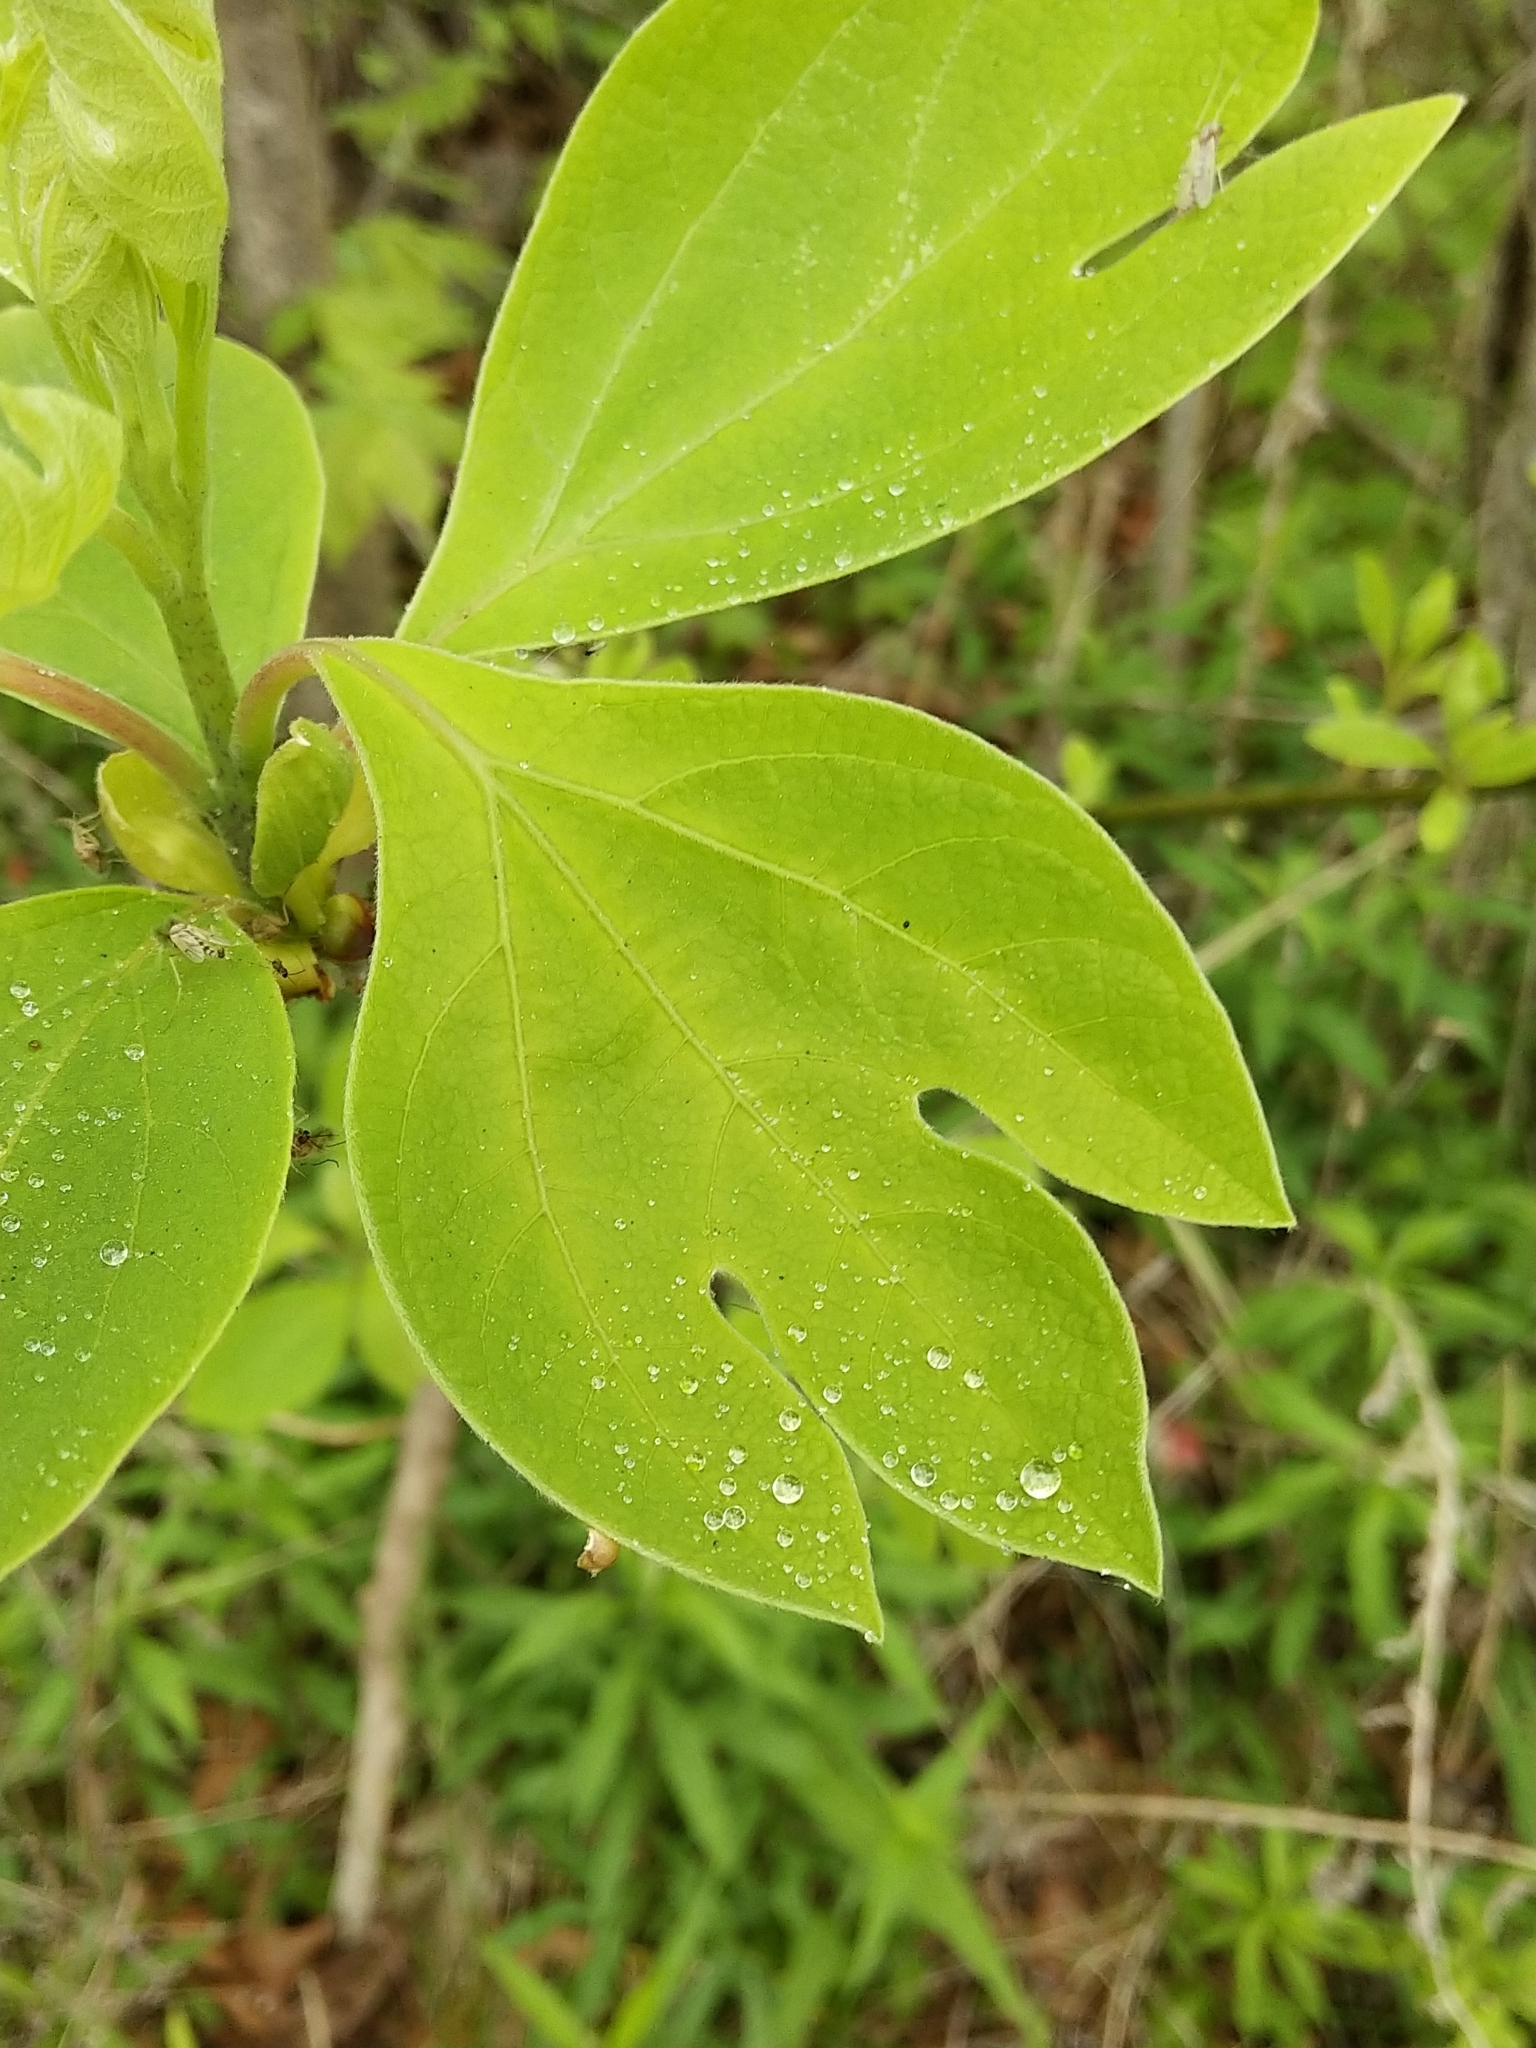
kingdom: Plantae
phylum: Tracheophyta
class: Magnoliopsida
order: Laurales
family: Lauraceae
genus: Sassafras
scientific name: Sassafras albidum
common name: Sassafras
